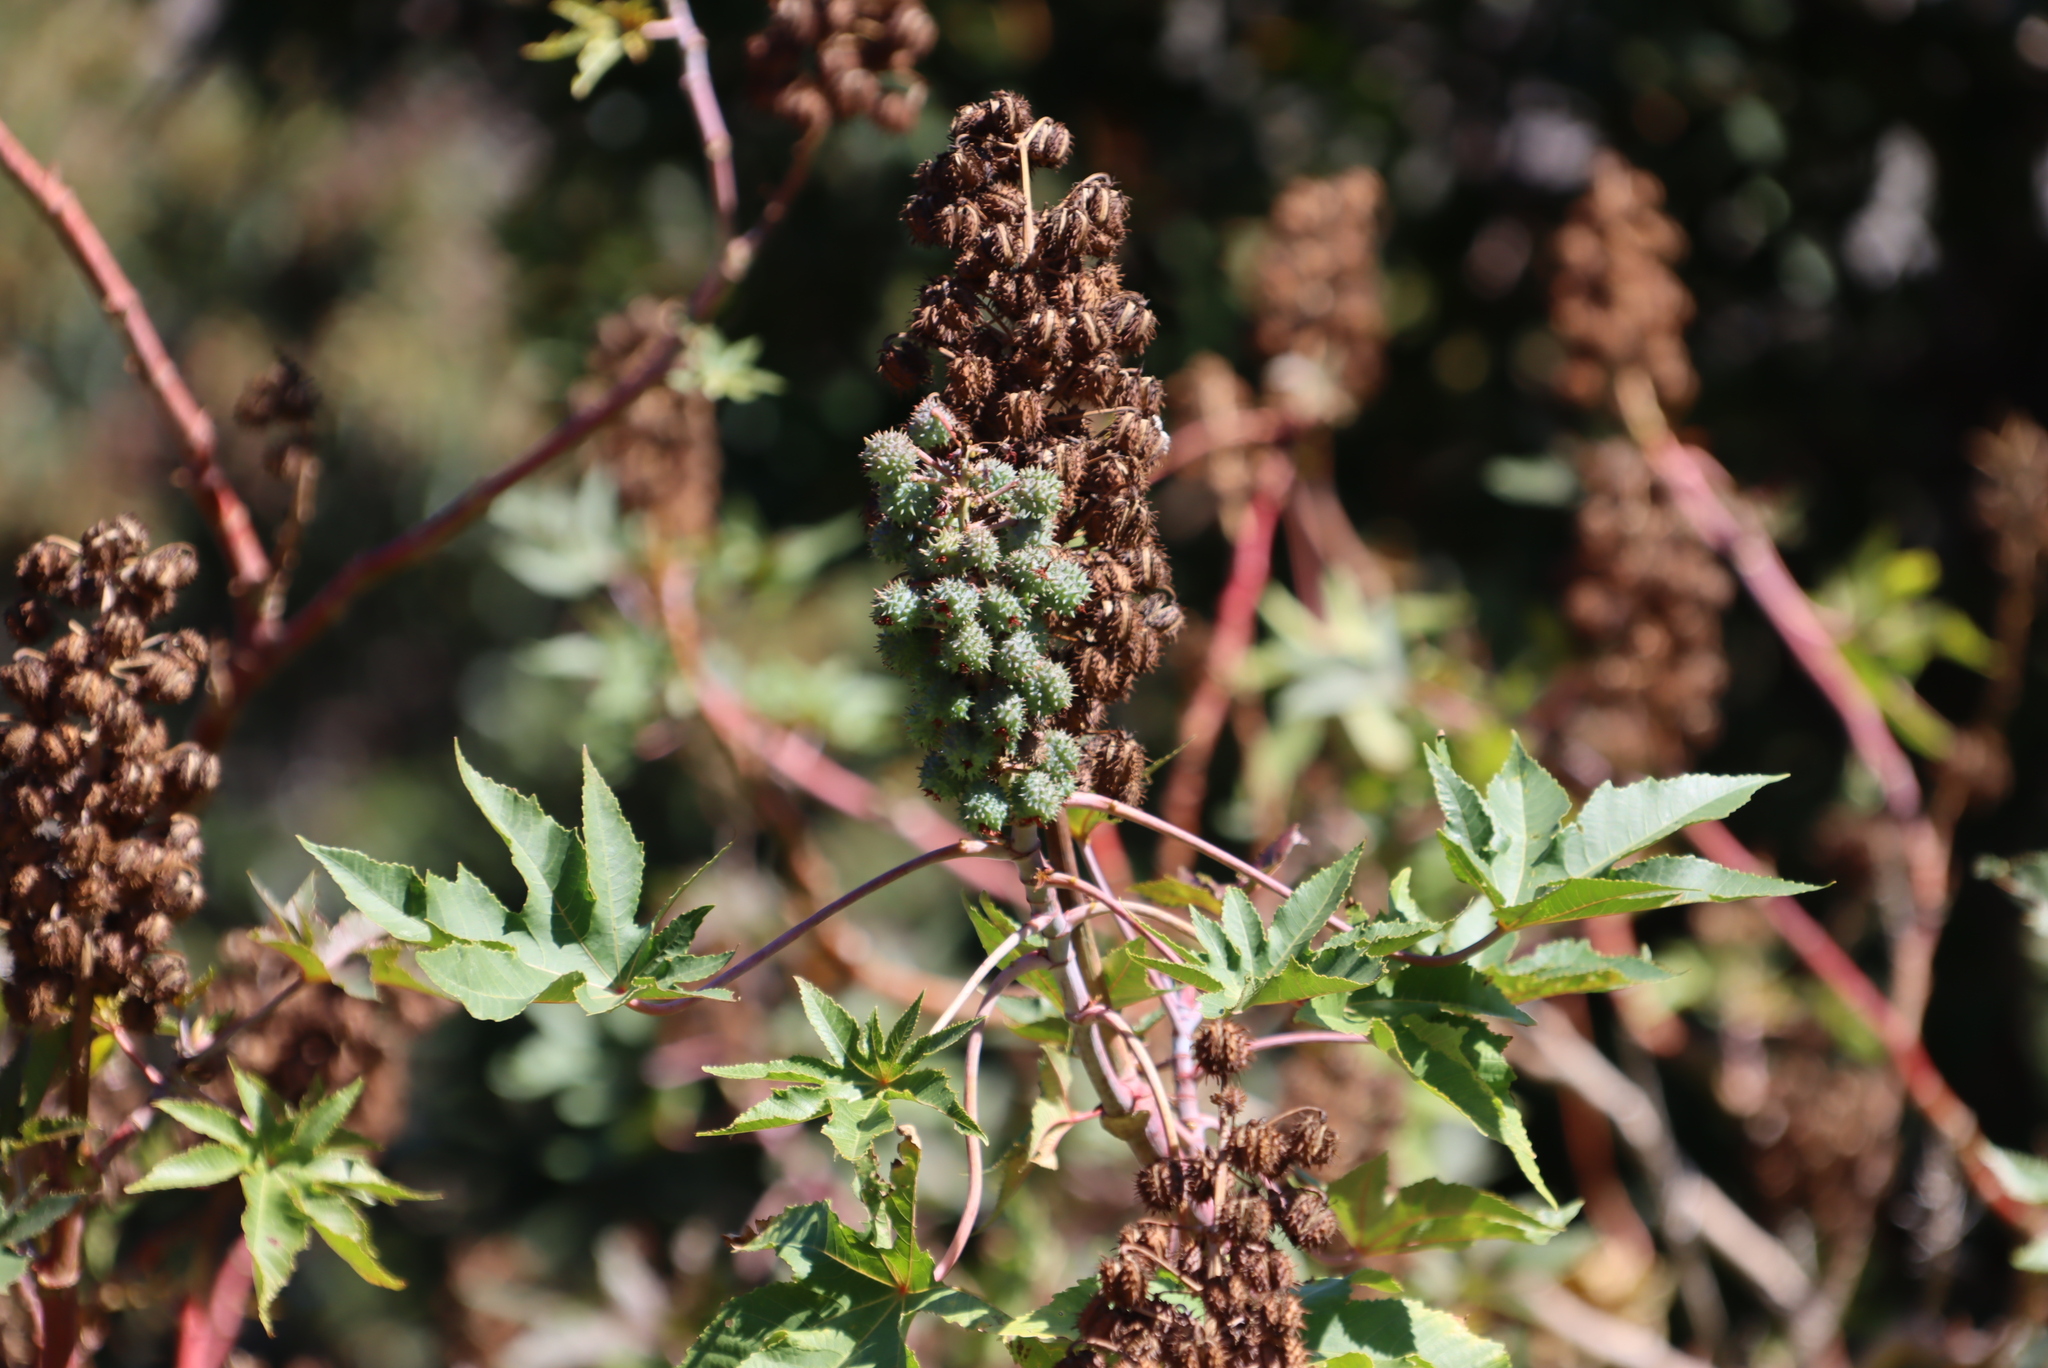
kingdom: Plantae
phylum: Tracheophyta
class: Magnoliopsida
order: Malpighiales
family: Euphorbiaceae
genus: Ricinus
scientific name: Ricinus communis
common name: Castor-oil-plant
